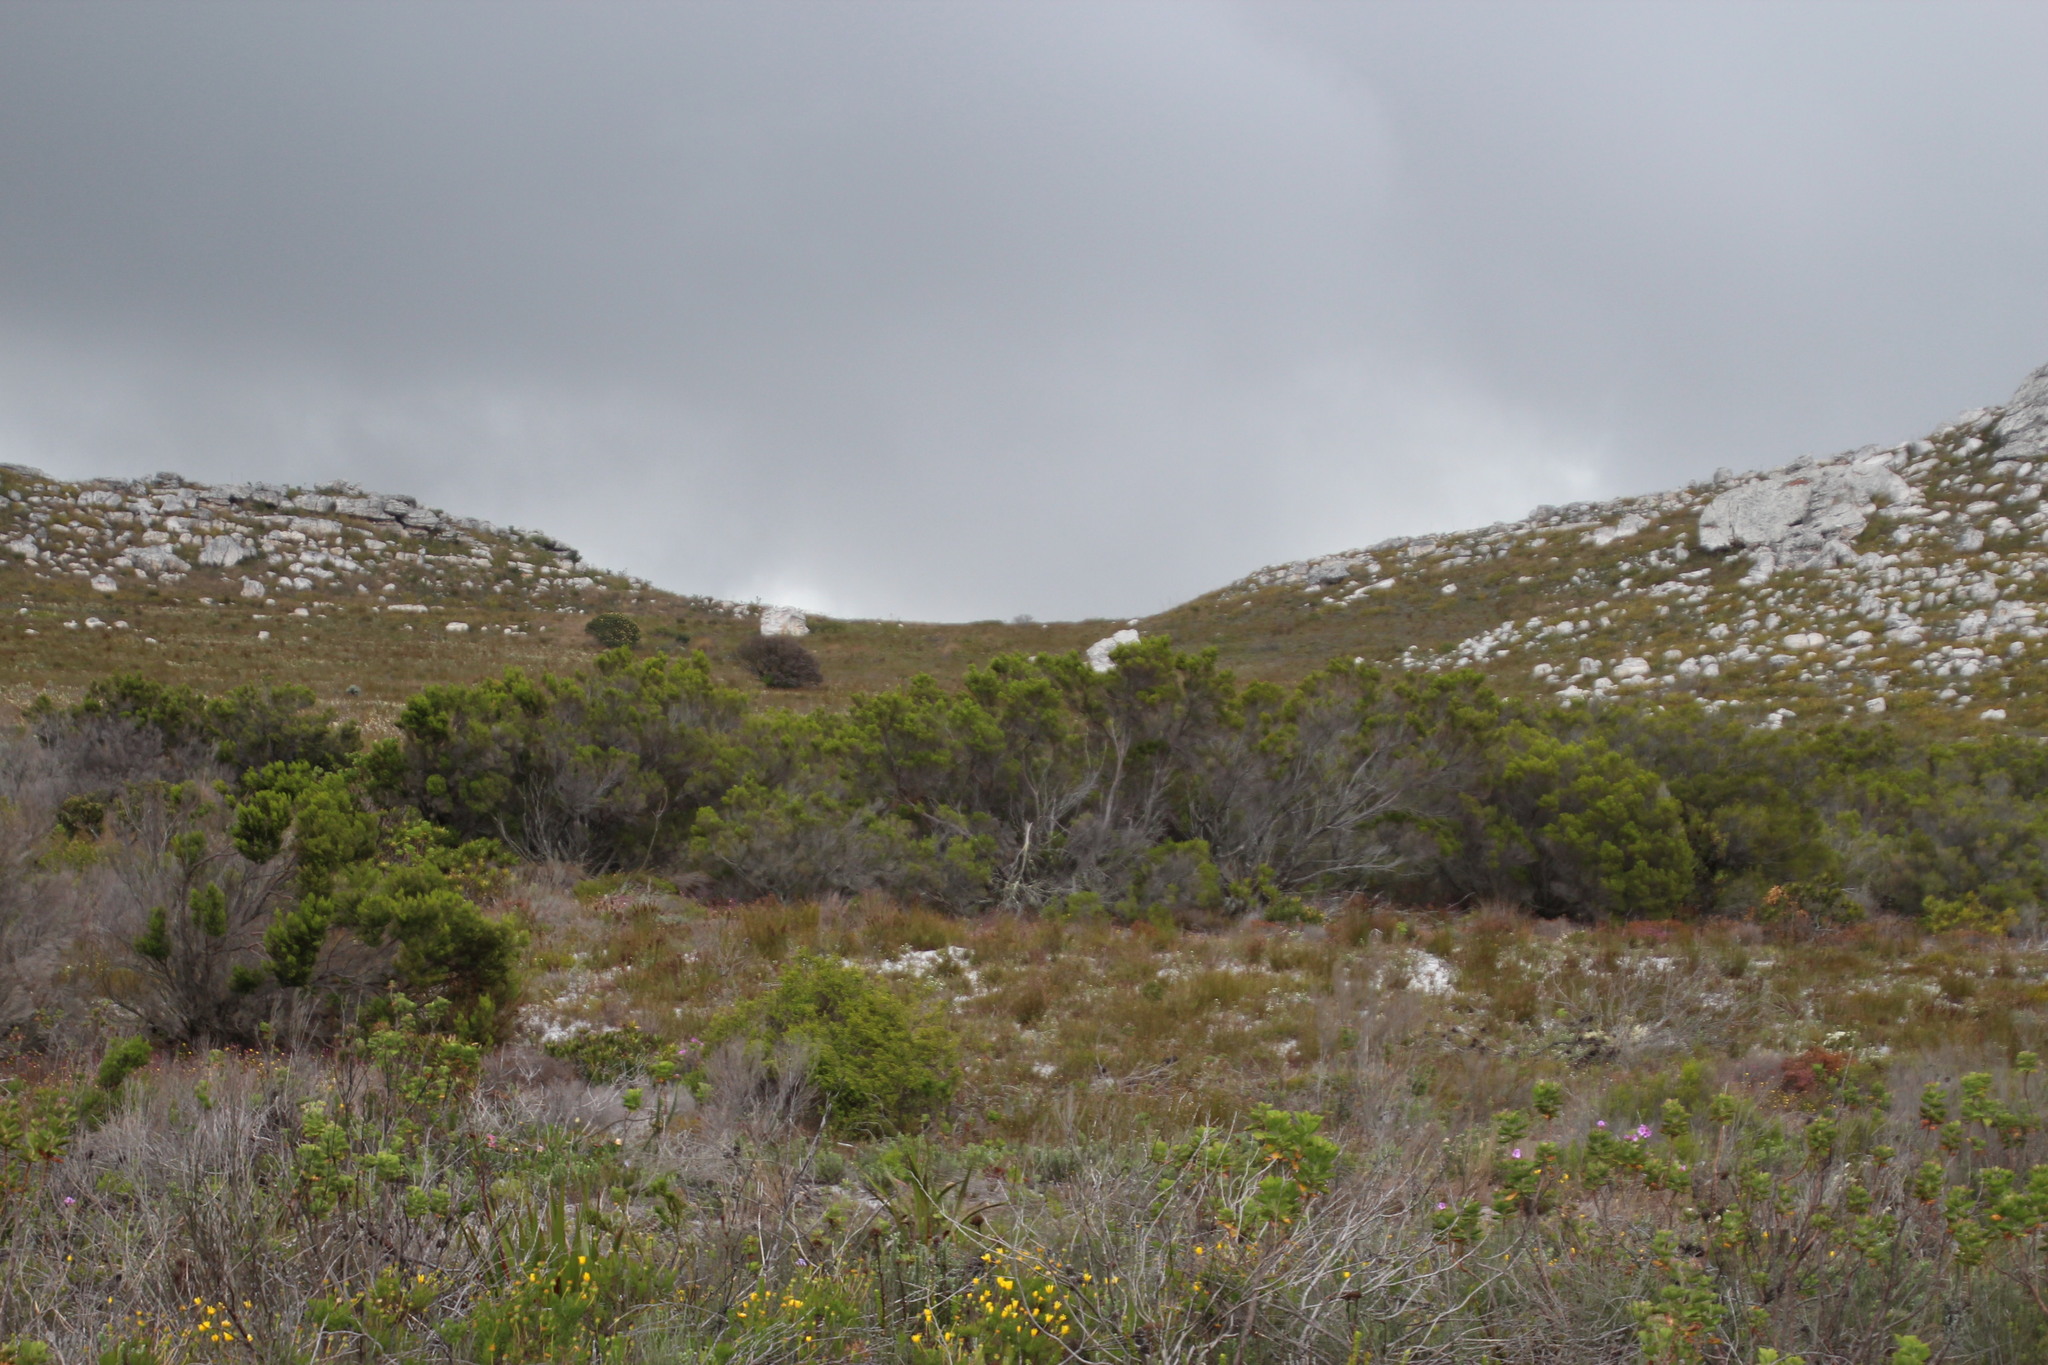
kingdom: Plantae
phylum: Tracheophyta
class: Magnoliopsida
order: Ericales
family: Ericaceae
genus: Erica
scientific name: Erica tristis
